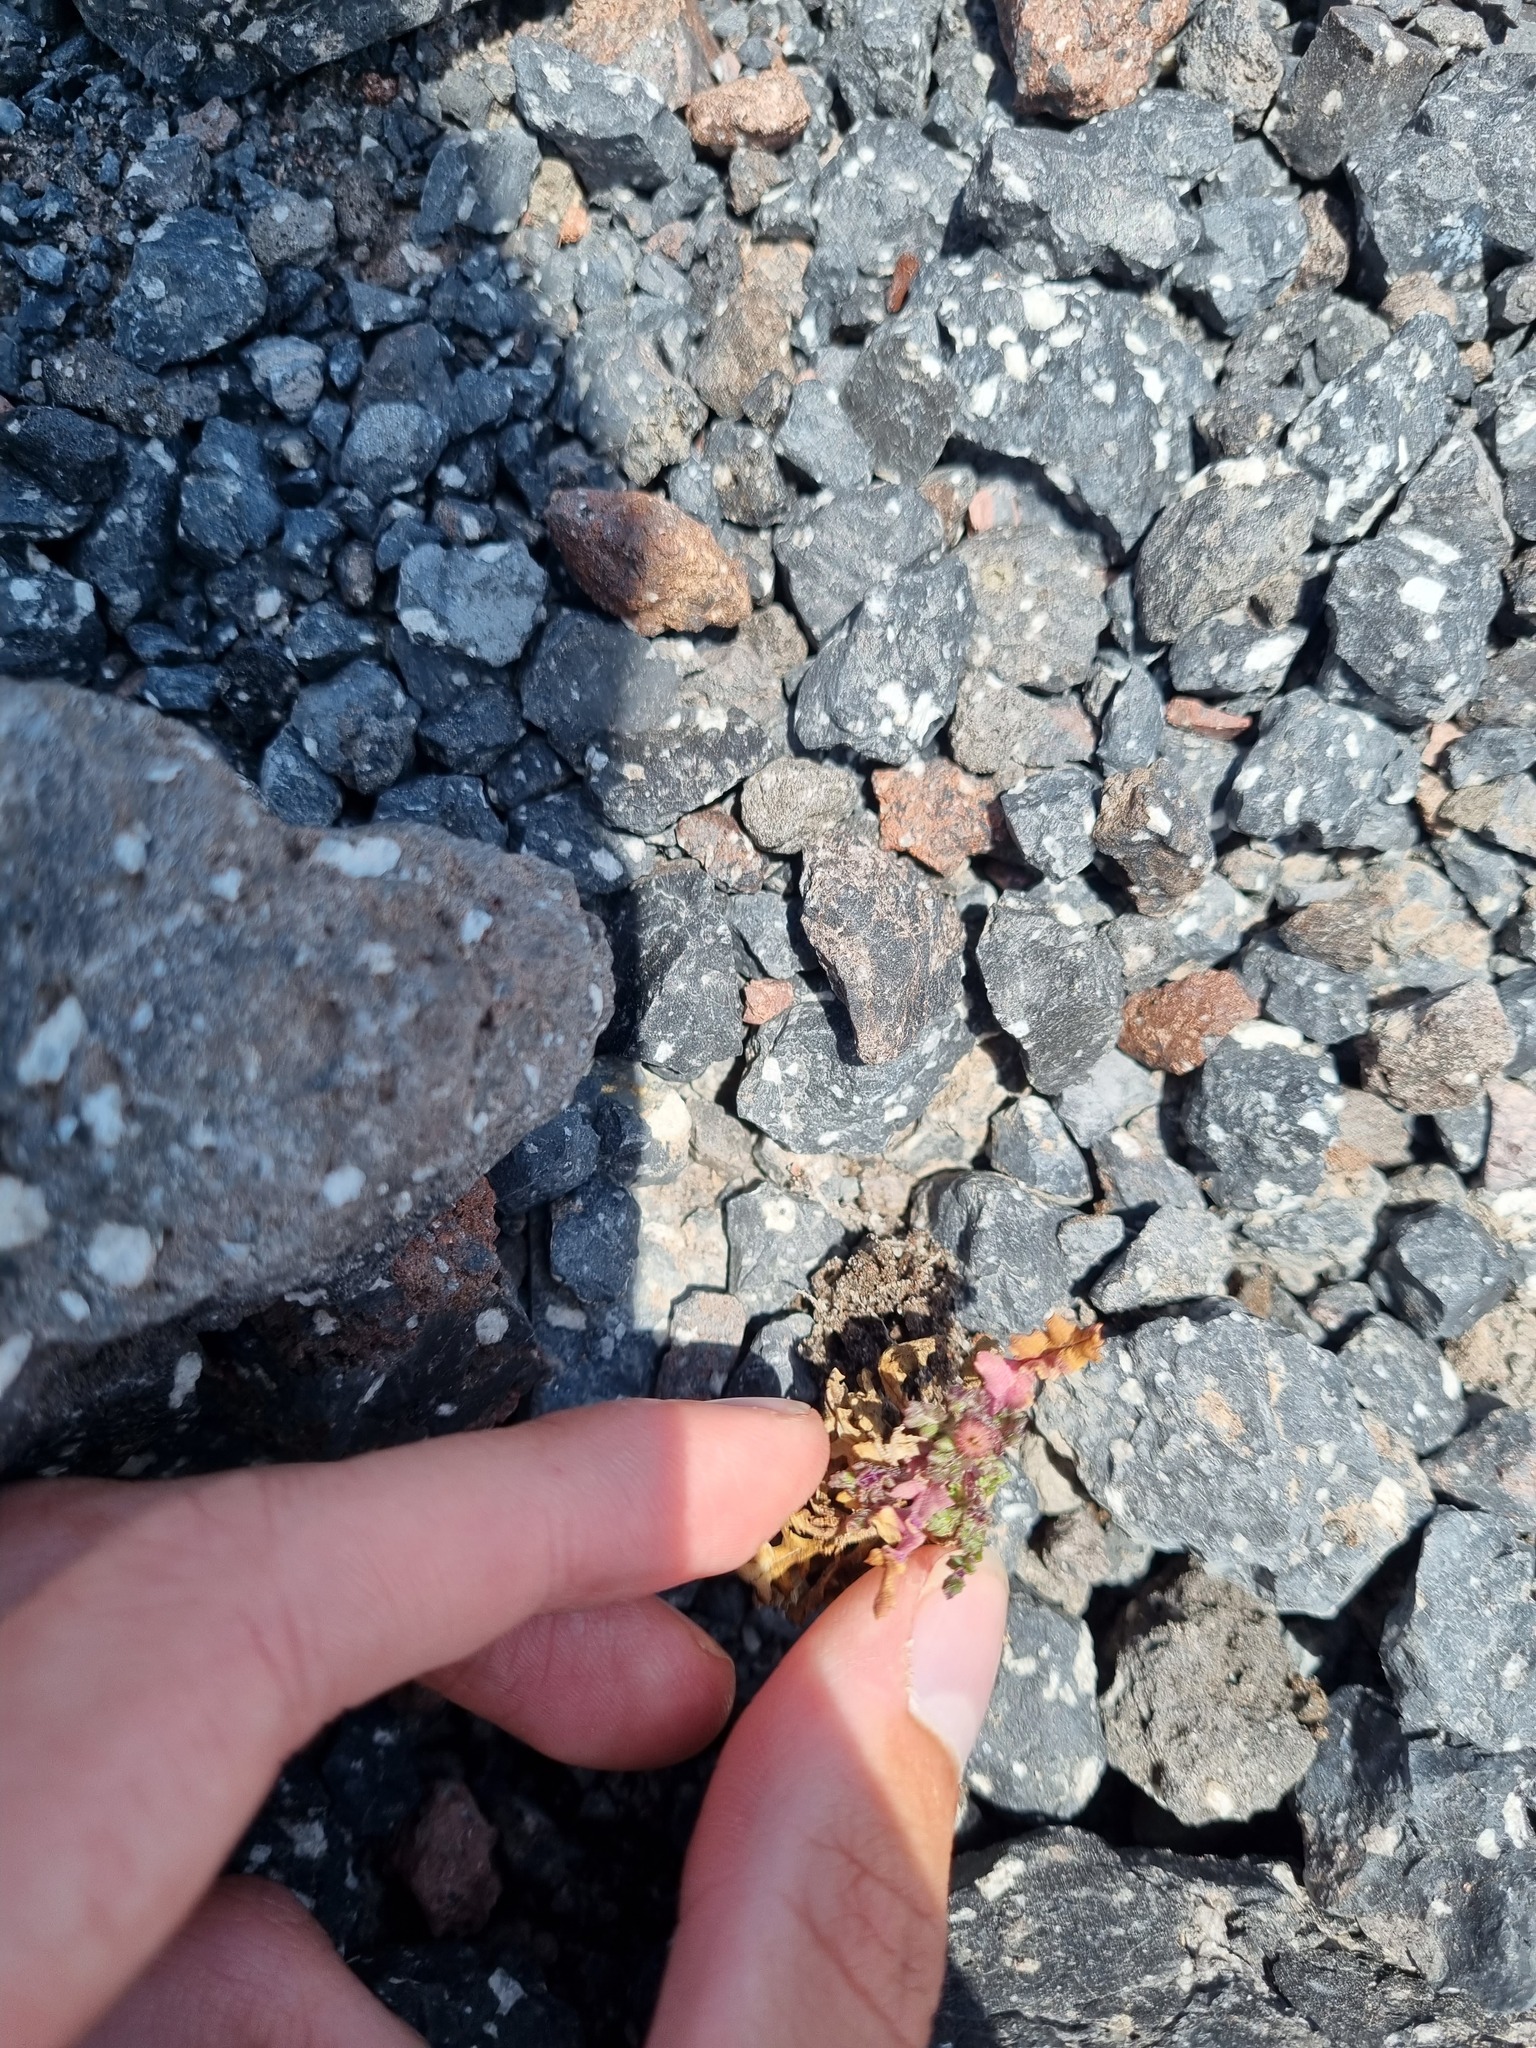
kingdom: Plantae
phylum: Tracheophyta
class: Magnoliopsida
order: Asterales
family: Asteraceae
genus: Senecio
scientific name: Senecio leucanthemifolius
